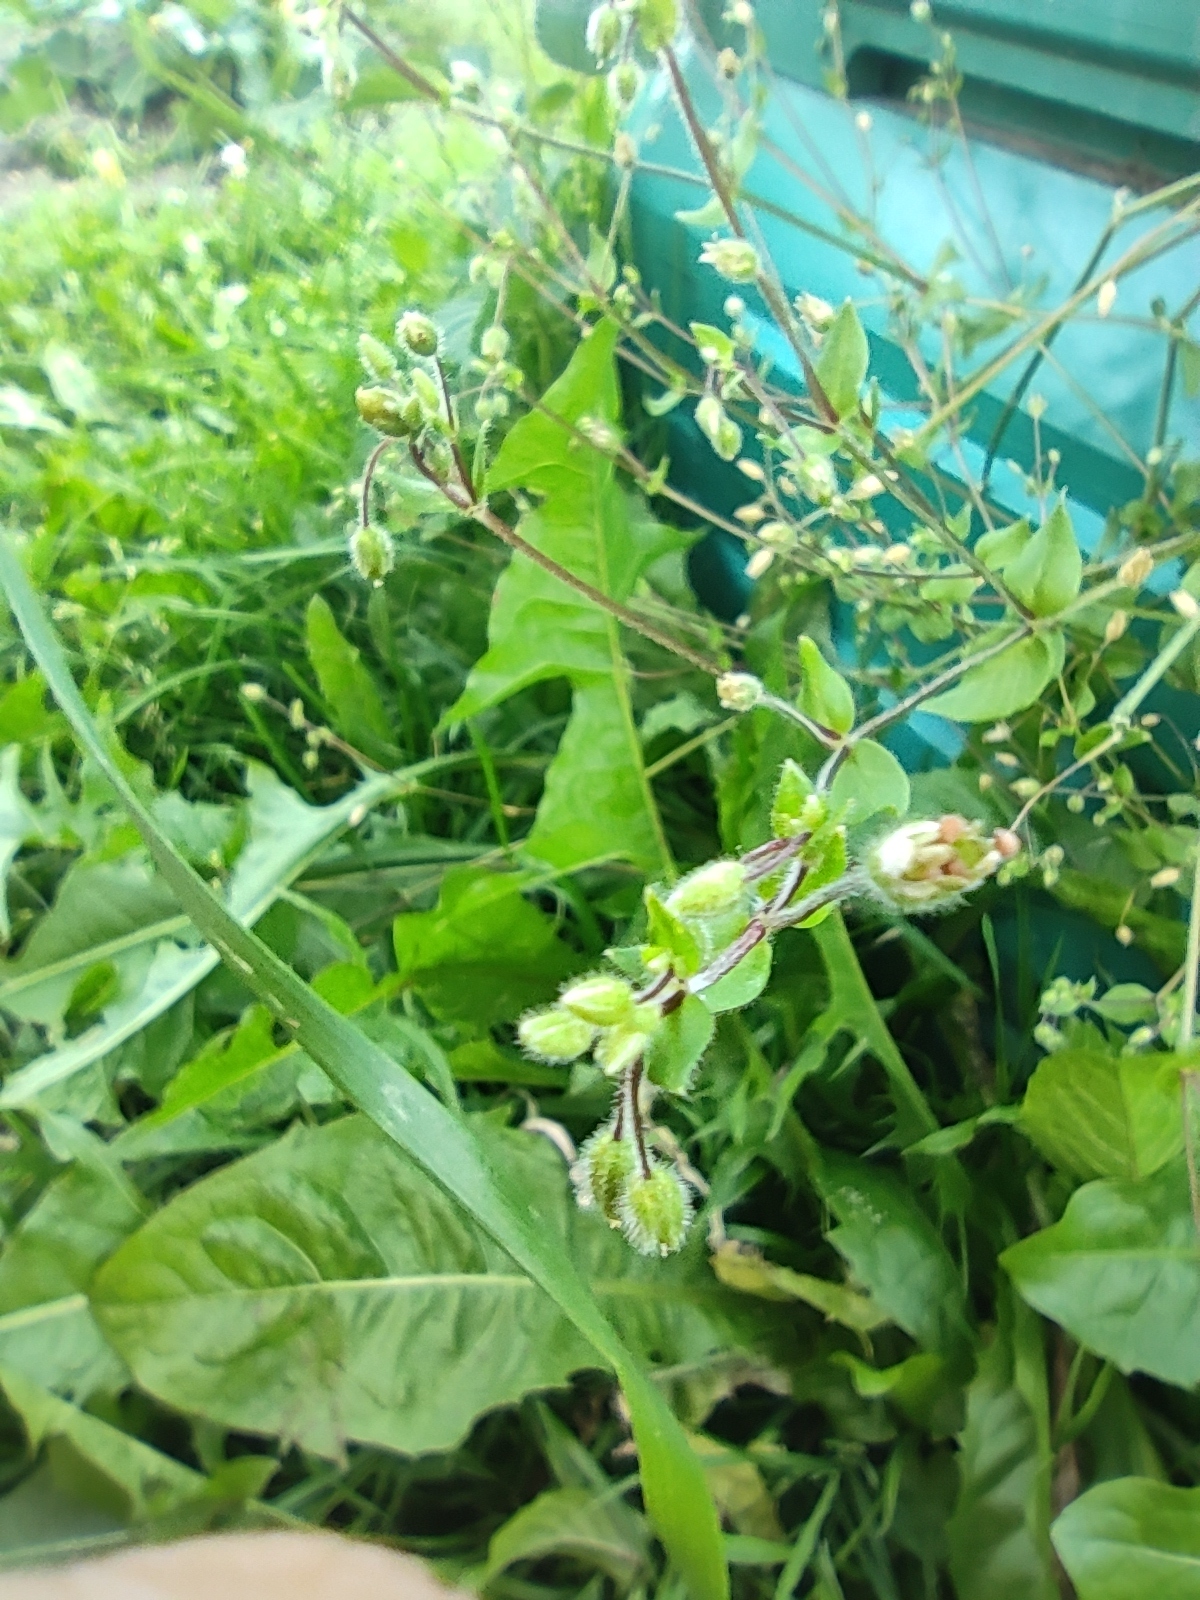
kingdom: Plantae
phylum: Tracheophyta
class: Magnoliopsida
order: Caryophyllales
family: Caryophyllaceae
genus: Stellaria
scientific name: Stellaria media
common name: Common chickweed
